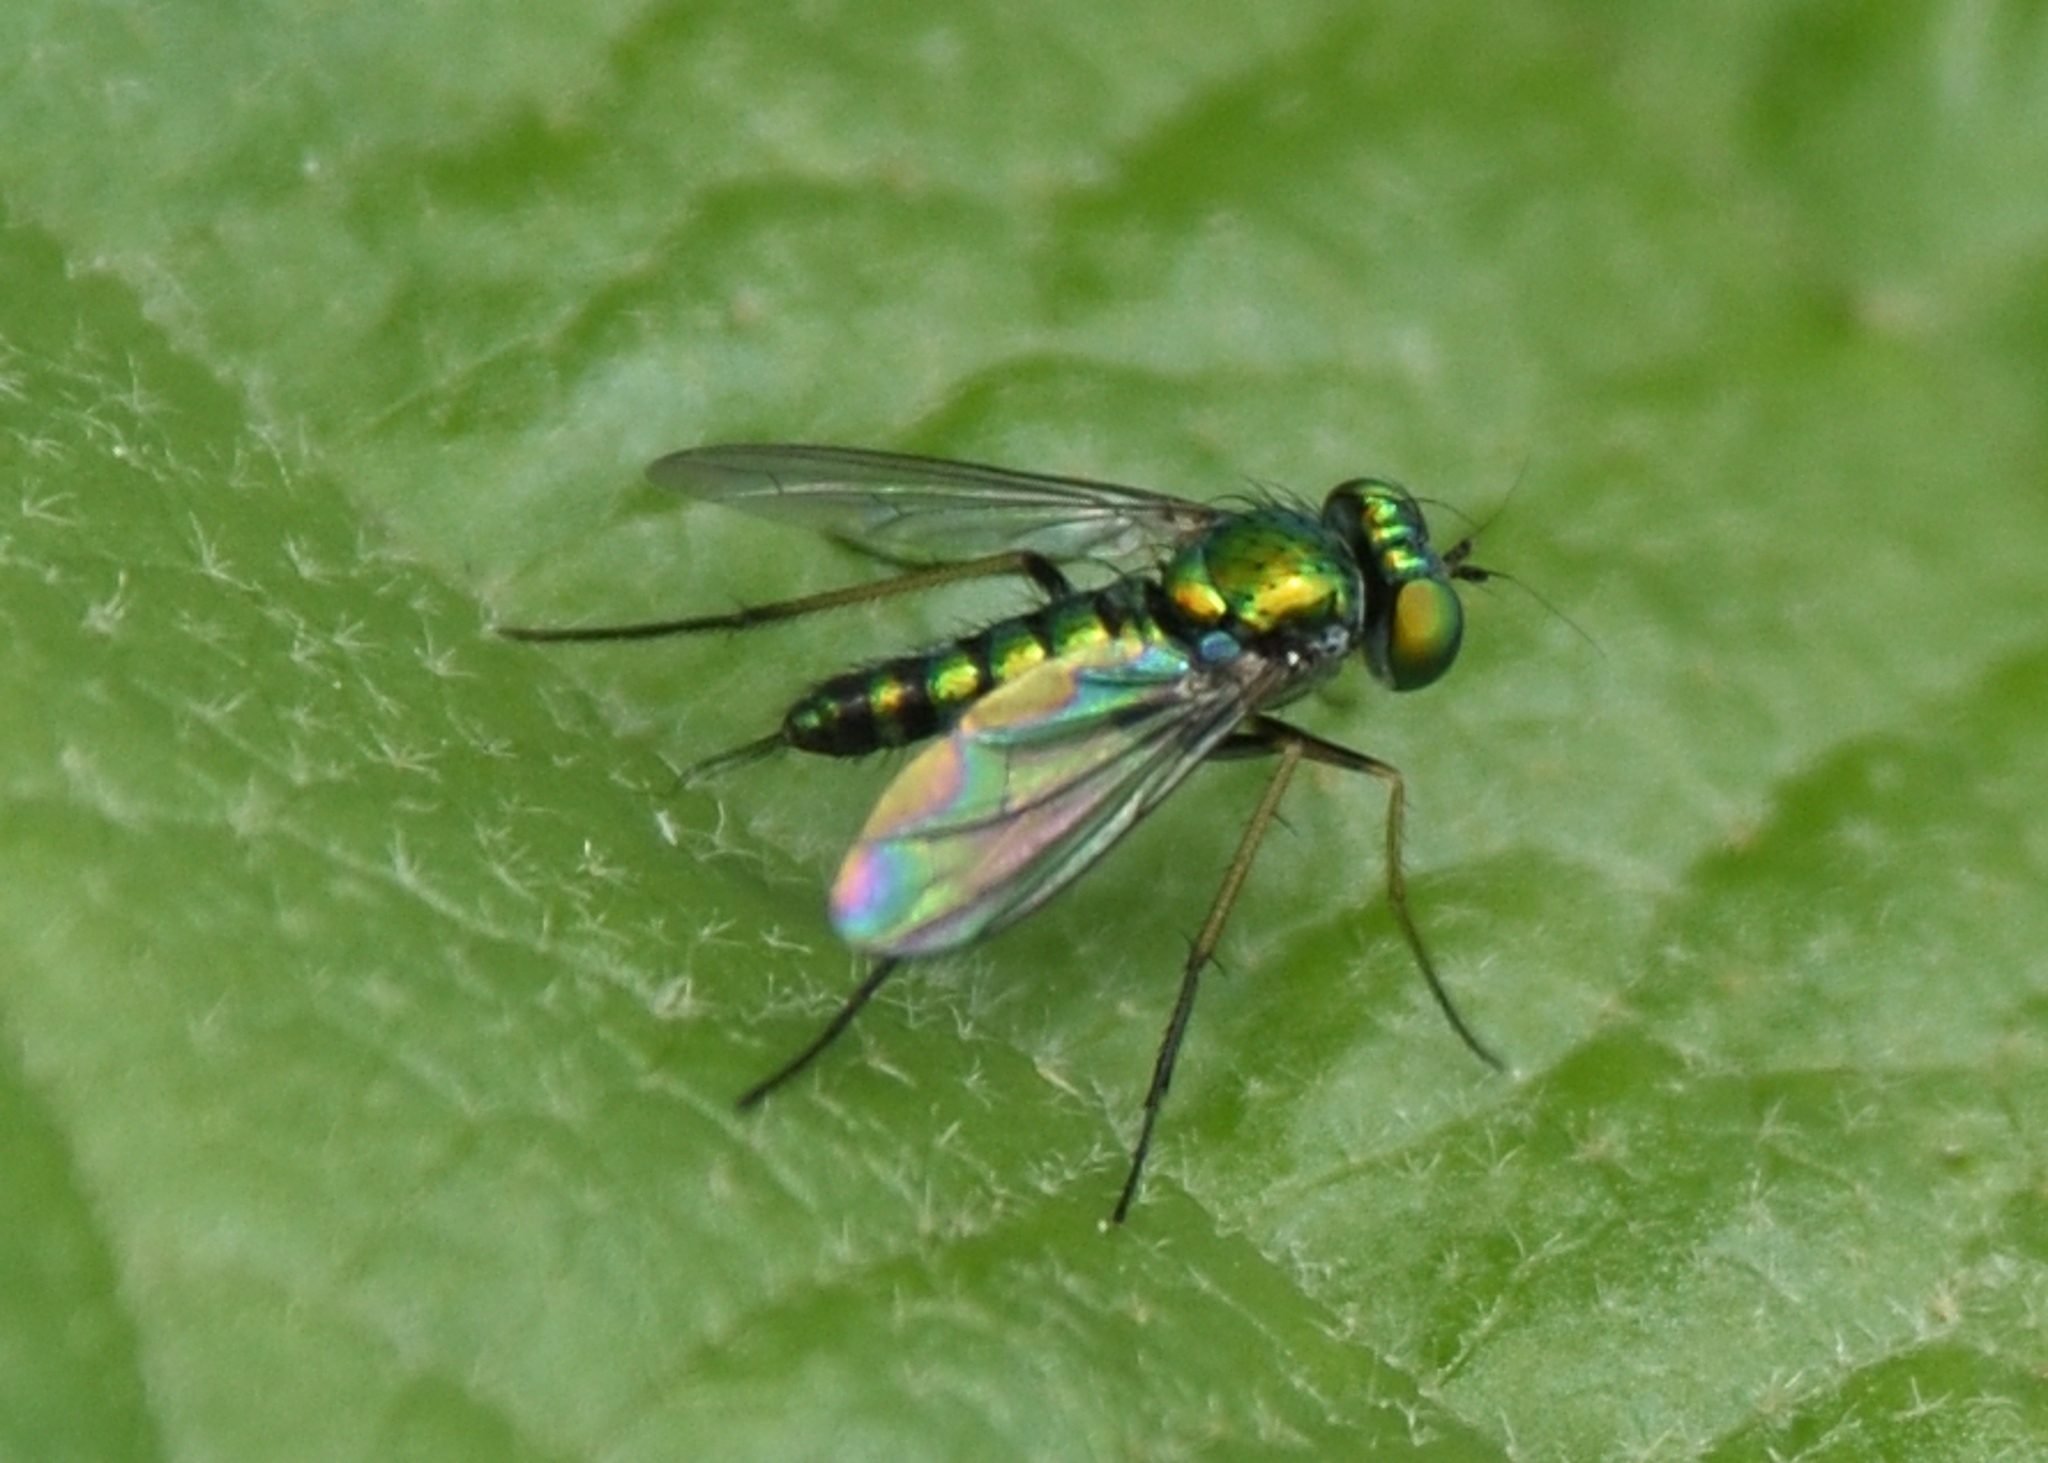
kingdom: Animalia
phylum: Arthropoda
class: Insecta
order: Diptera
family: Dolichopodidae
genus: Condylostylus
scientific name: Condylostylus caudatus
